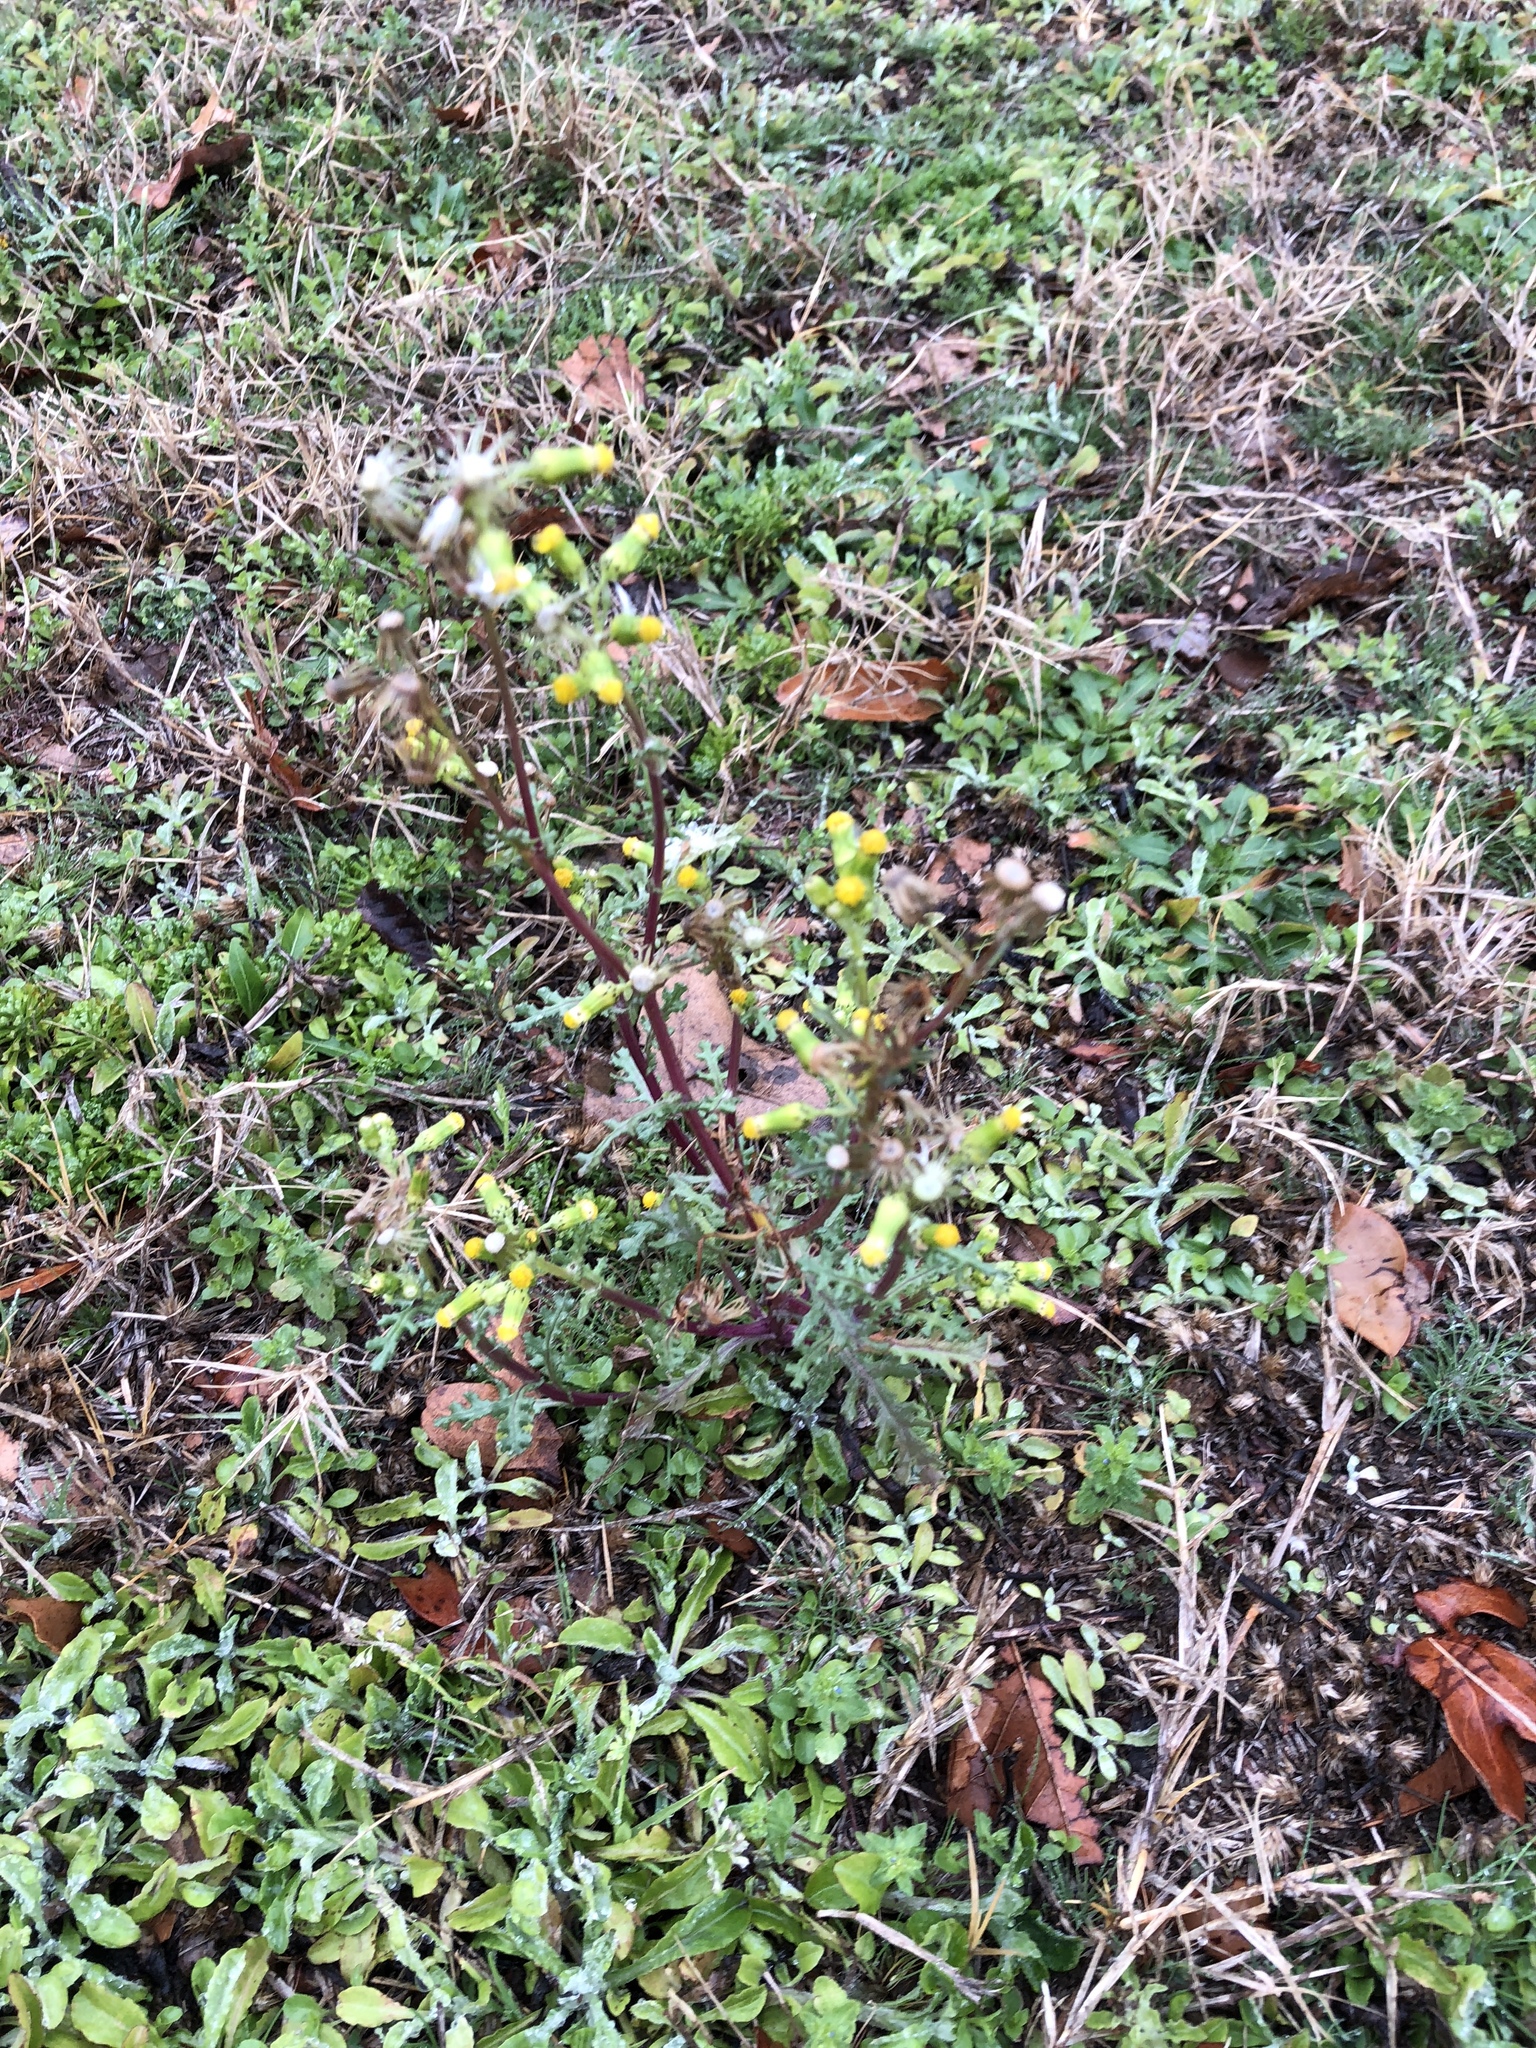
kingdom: Plantae
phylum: Tracheophyta
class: Magnoliopsida
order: Asterales
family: Asteraceae
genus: Senecio
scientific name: Senecio vulgaris
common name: Old-man-in-the-spring
